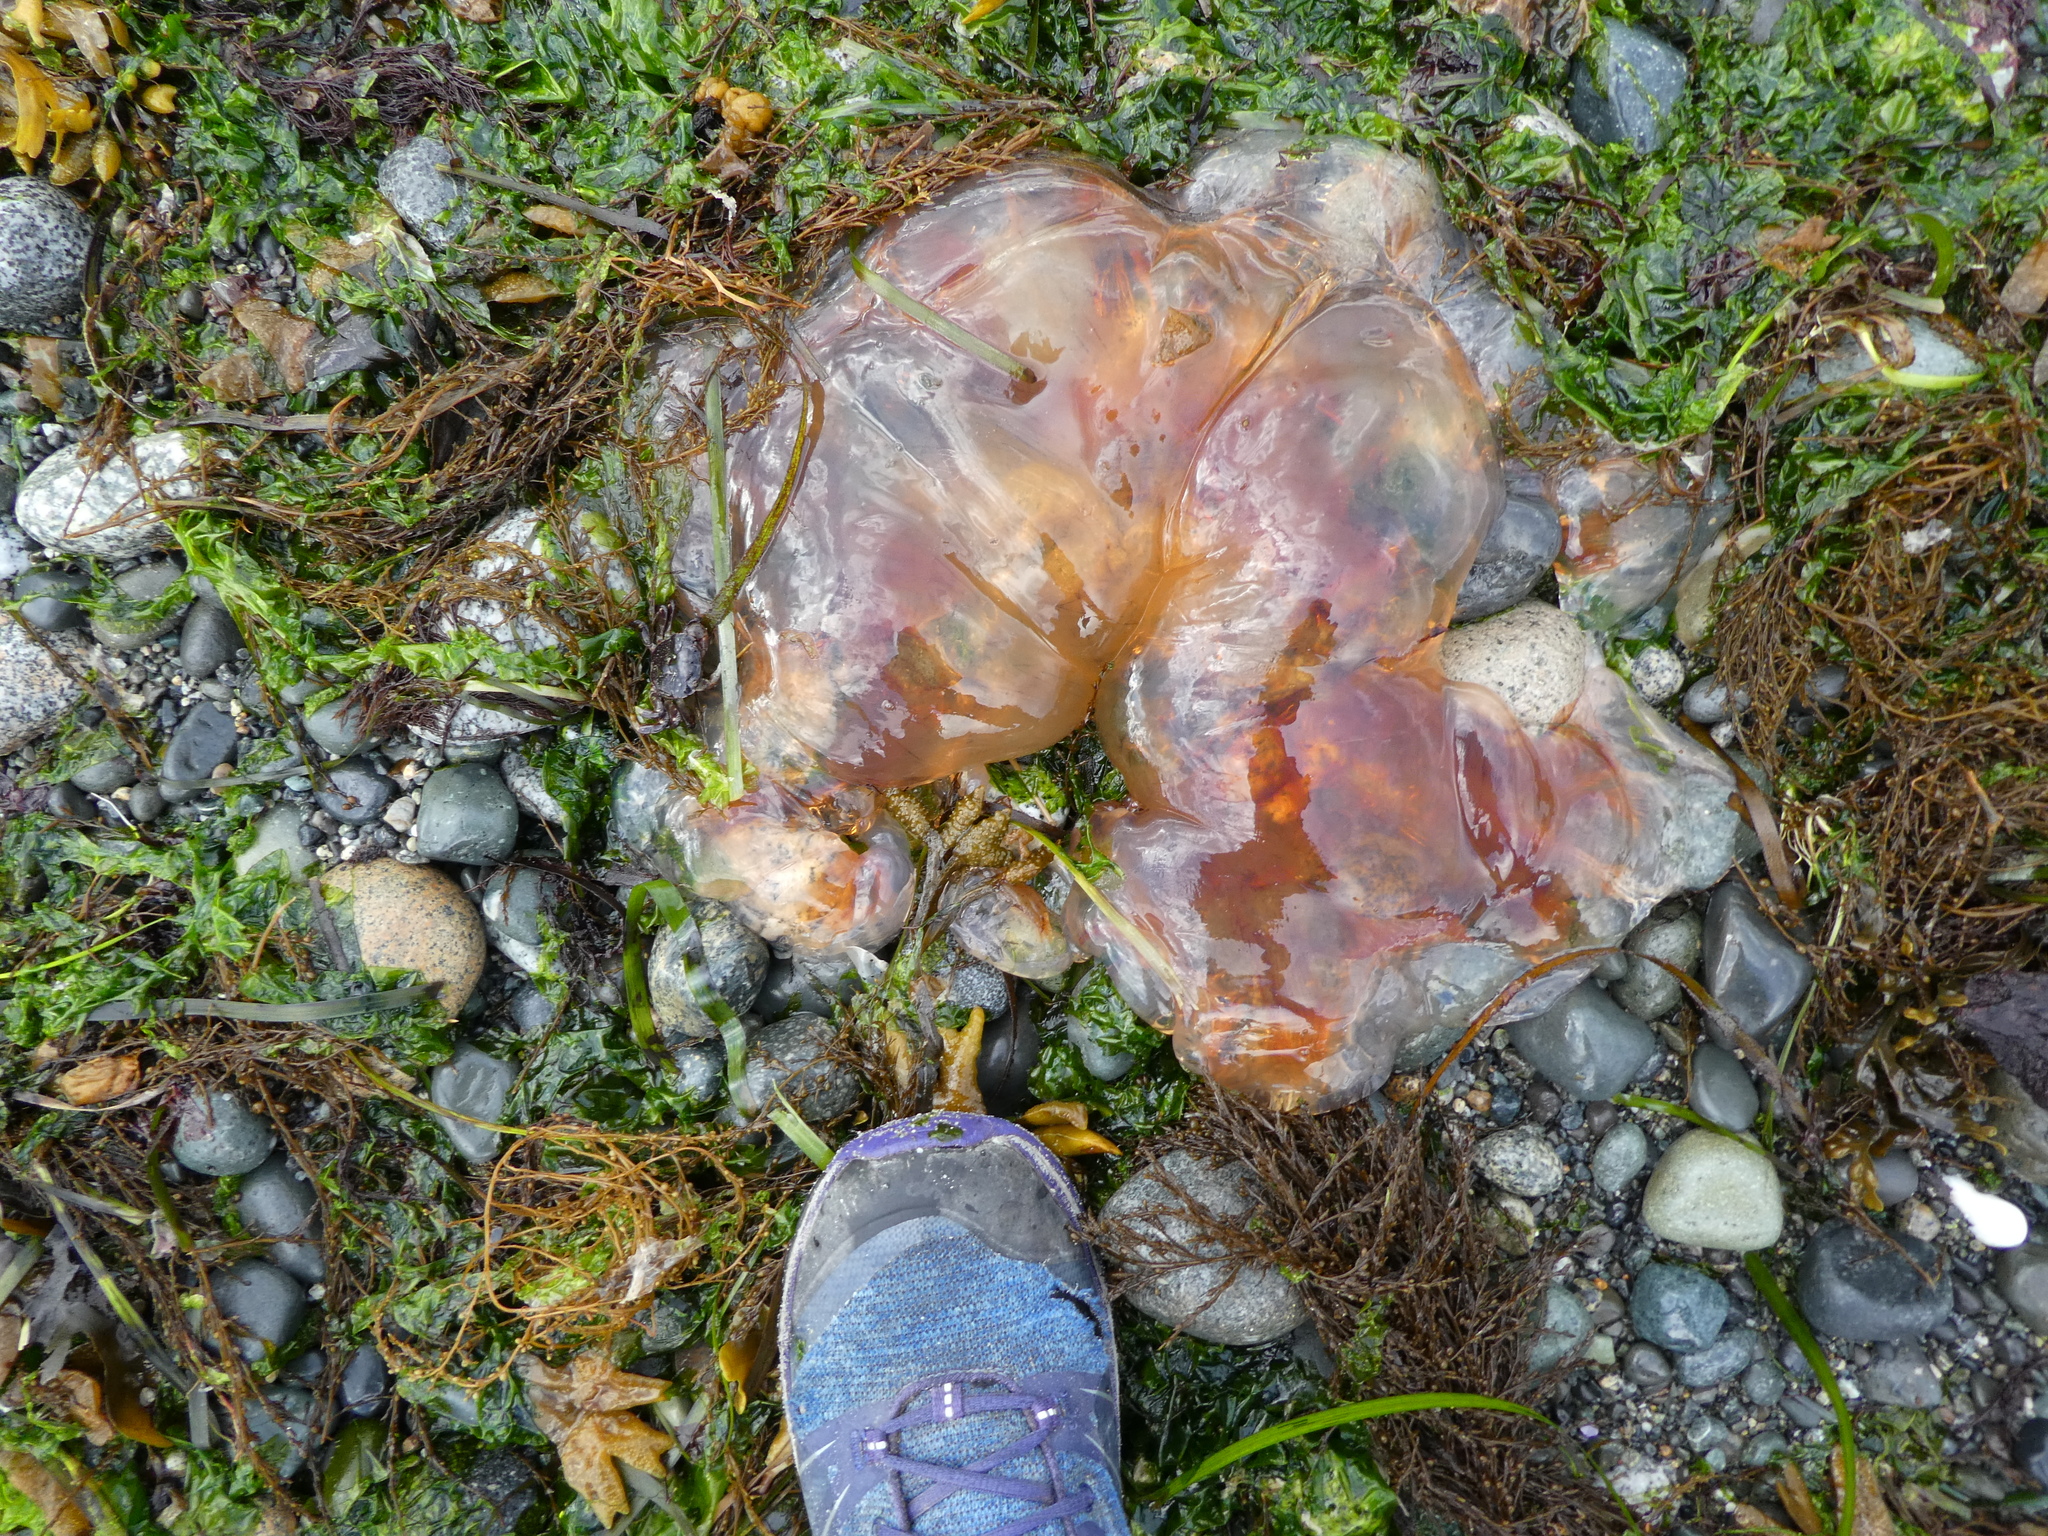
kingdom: Animalia
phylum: Cnidaria
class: Scyphozoa
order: Semaeostomeae
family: Cyaneidae
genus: Cyanea
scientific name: Cyanea ferruginea
